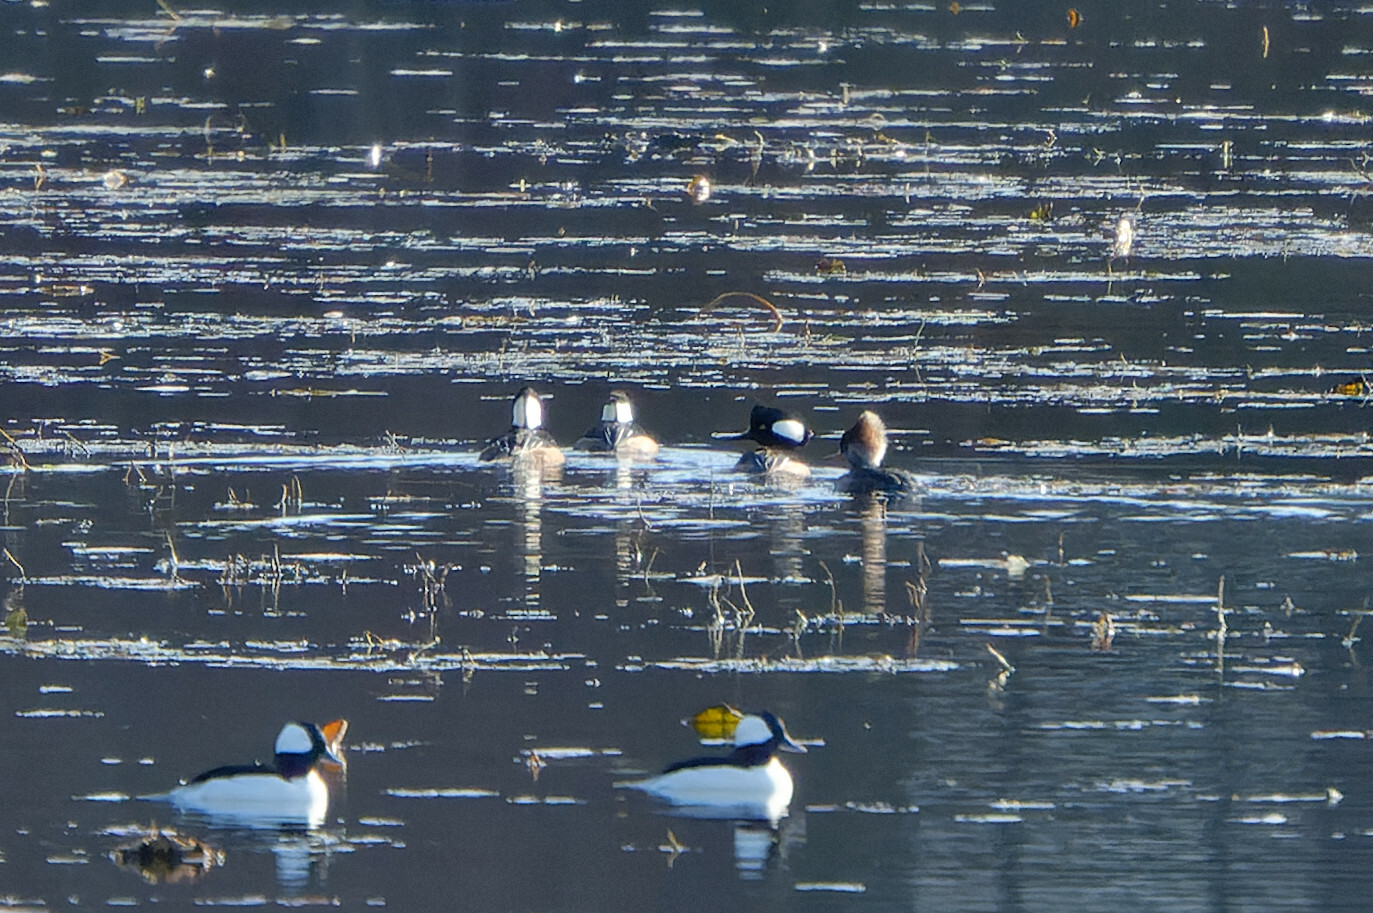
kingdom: Animalia
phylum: Chordata
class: Aves
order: Anseriformes
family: Anatidae
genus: Lophodytes
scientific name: Lophodytes cucullatus
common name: Hooded merganser
